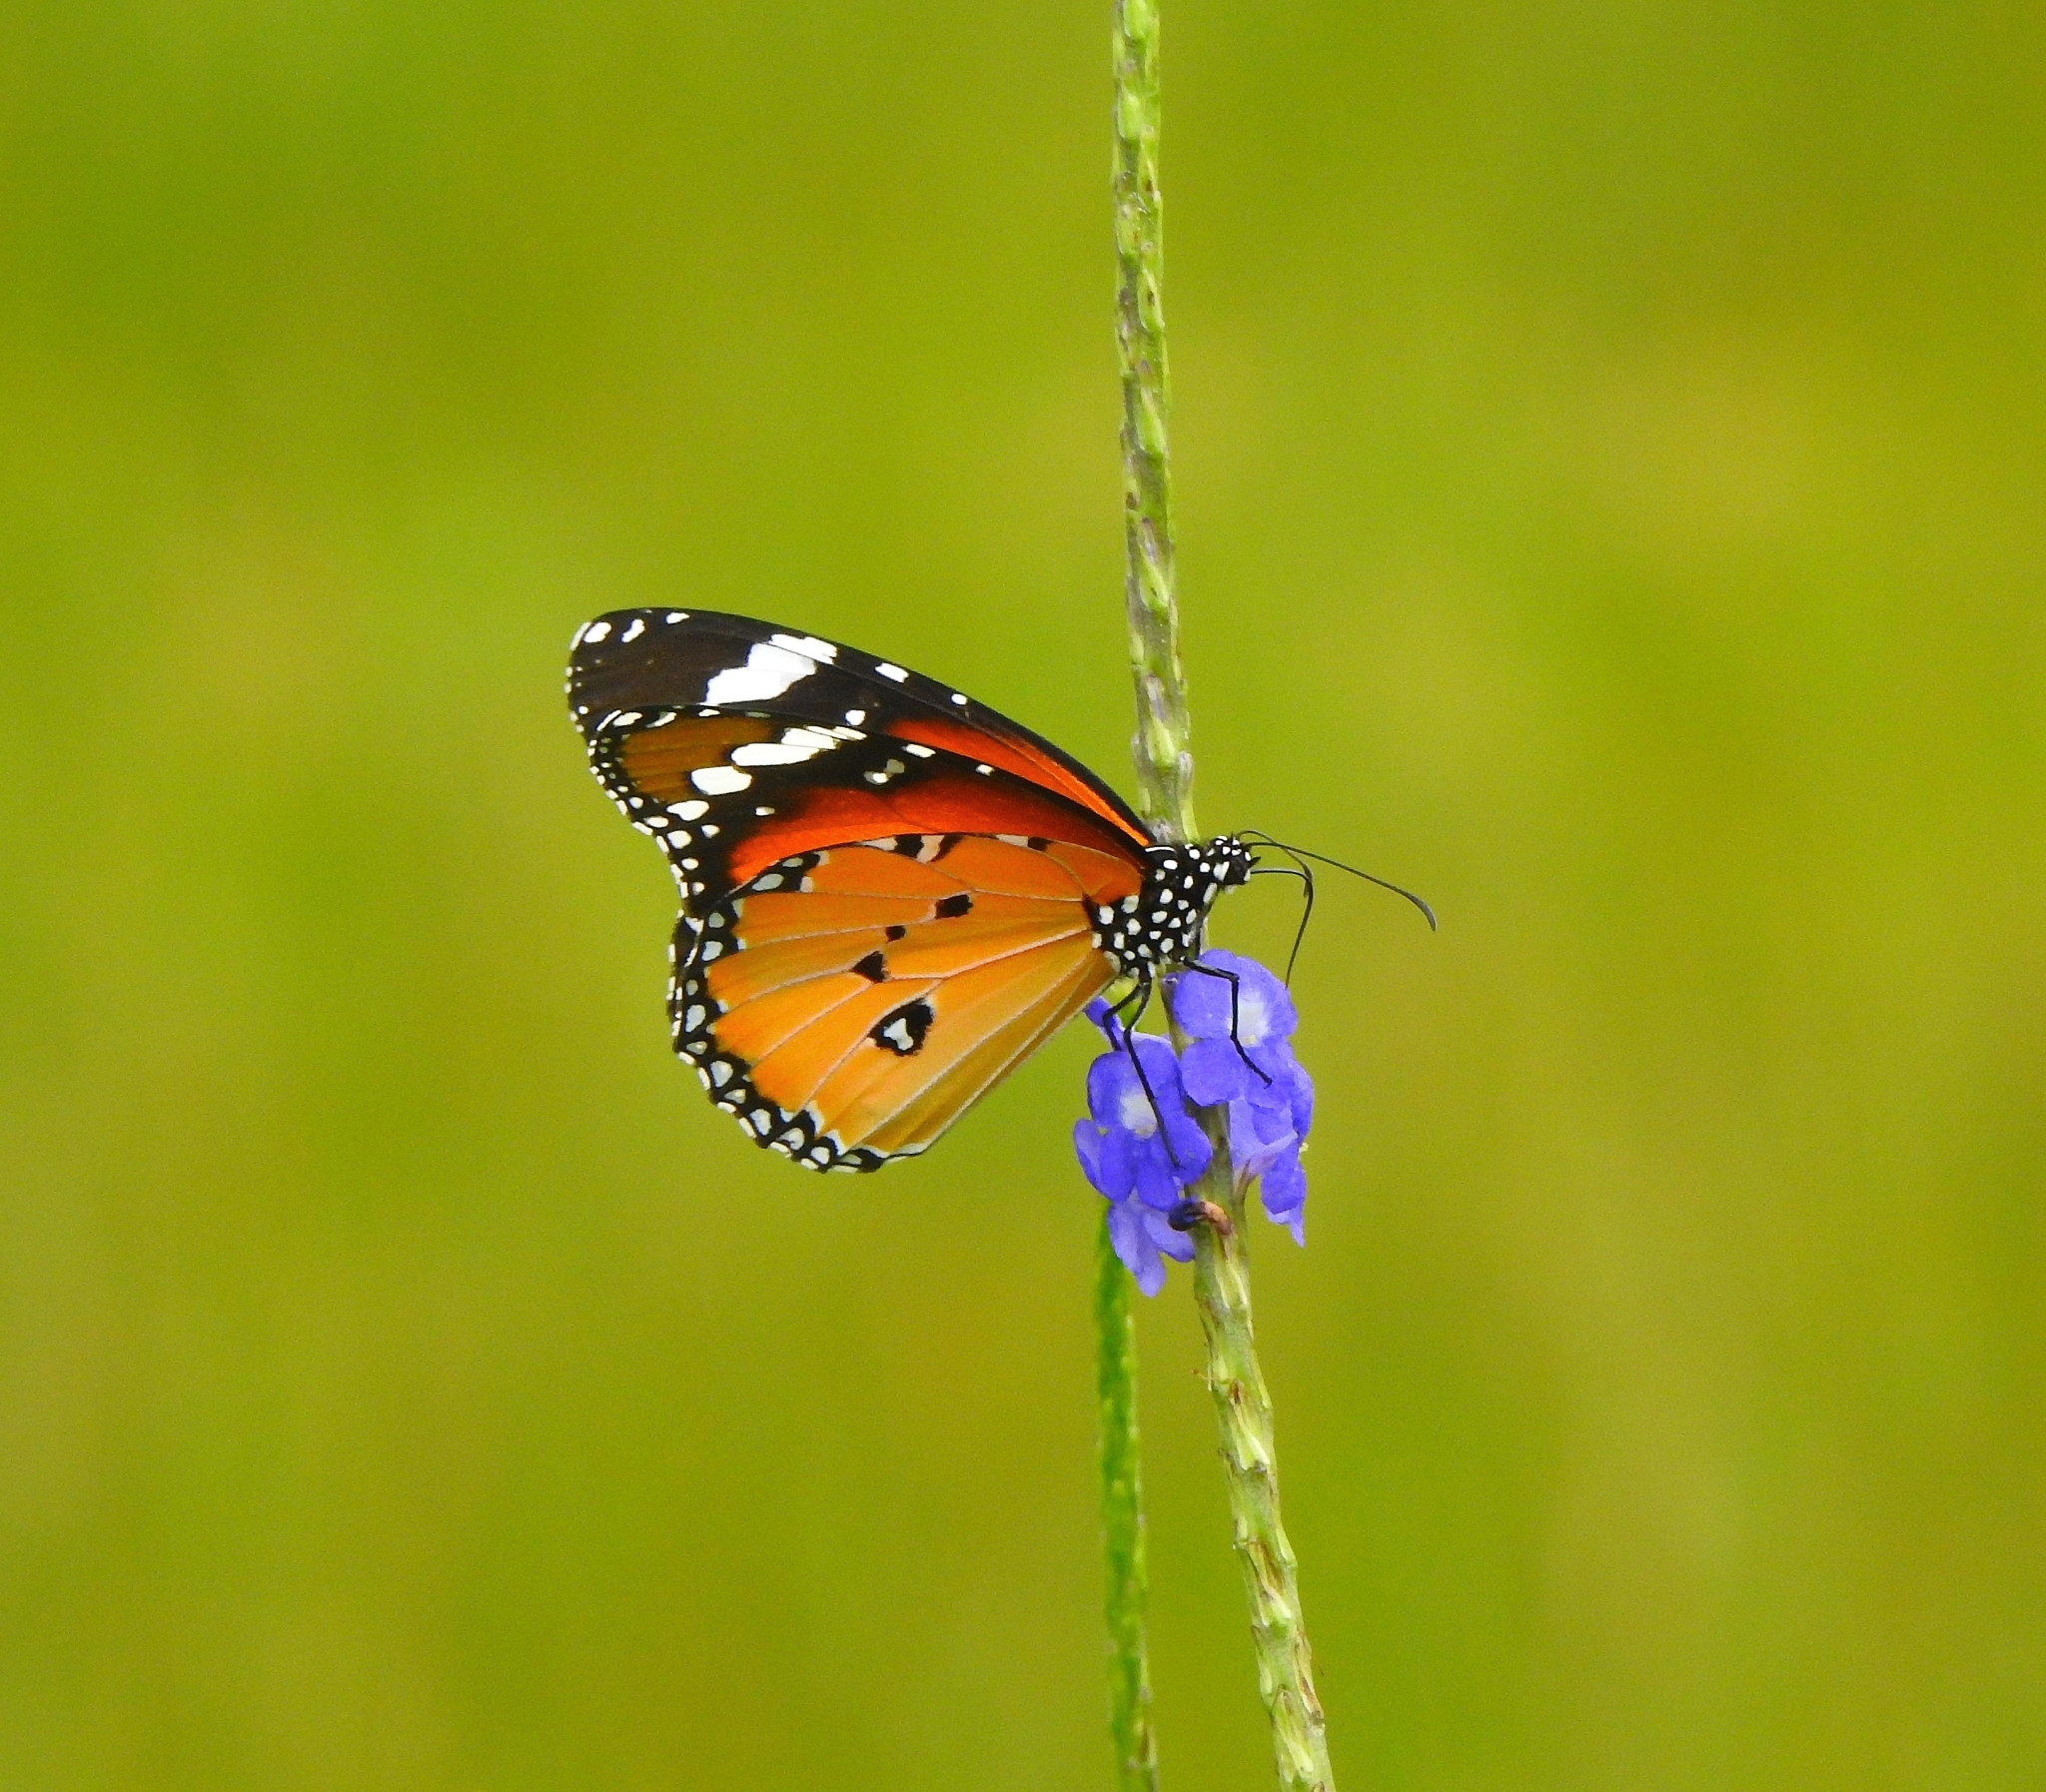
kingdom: Animalia
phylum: Arthropoda
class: Insecta
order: Lepidoptera
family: Nymphalidae
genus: Danaus
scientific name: Danaus chrysippus
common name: Plain tiger
